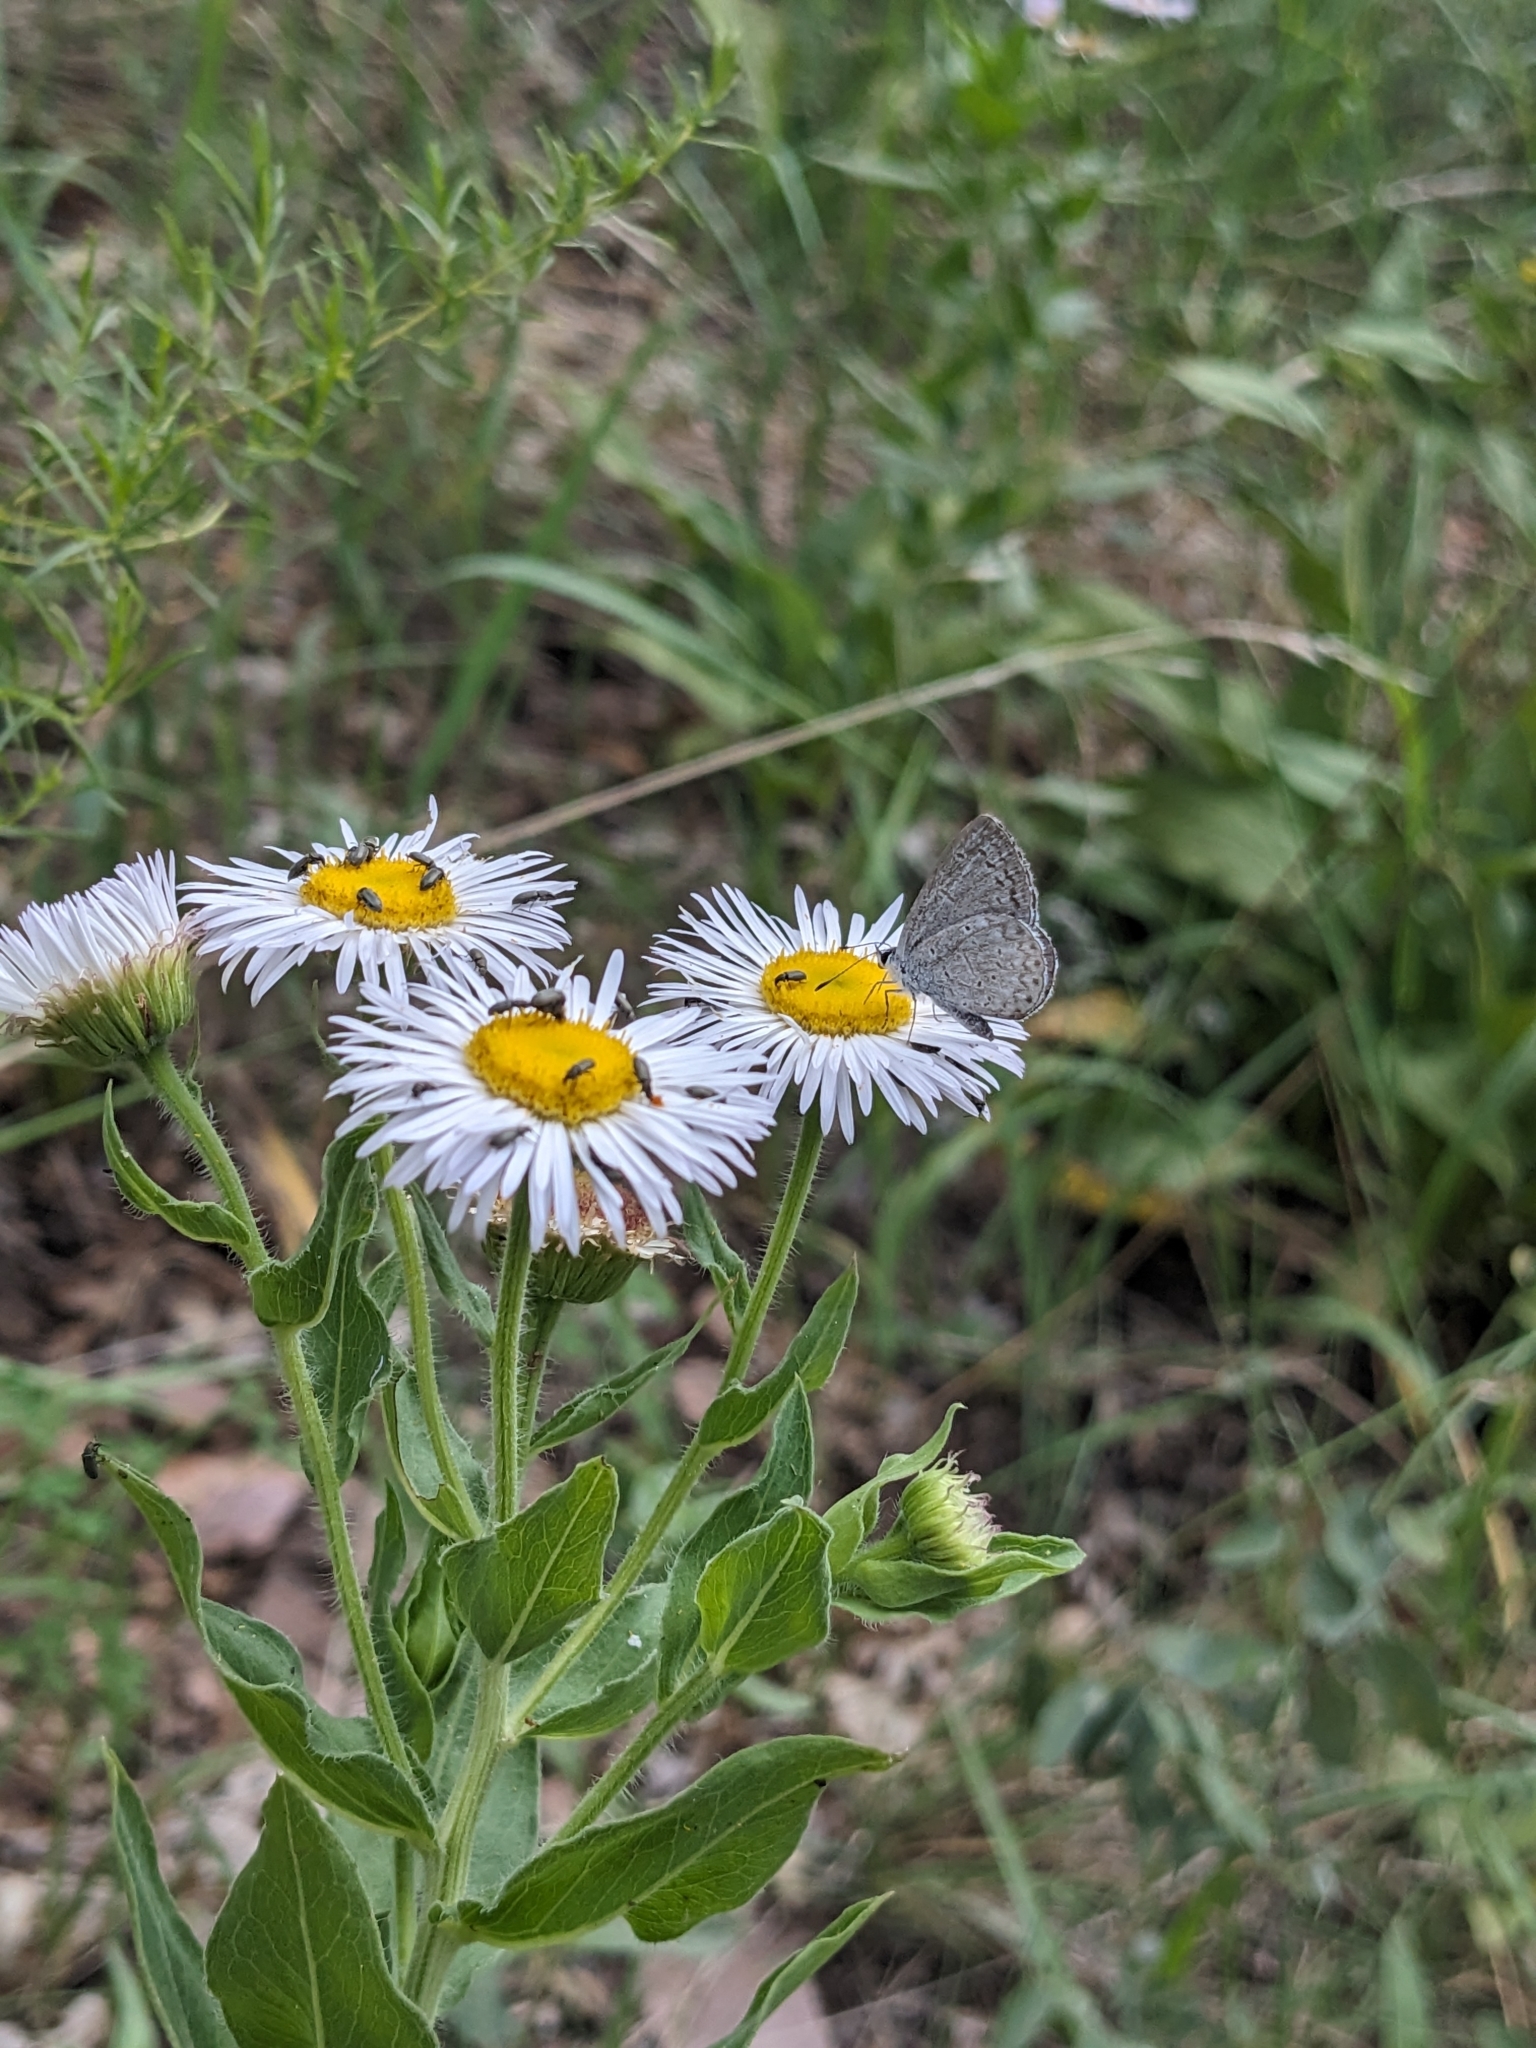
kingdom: Animalia
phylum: Arthropoda
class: Insecta
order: Lepidoptera
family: Lycaenidae
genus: Celastrina
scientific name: Celastrina ladon
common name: Spring azure
